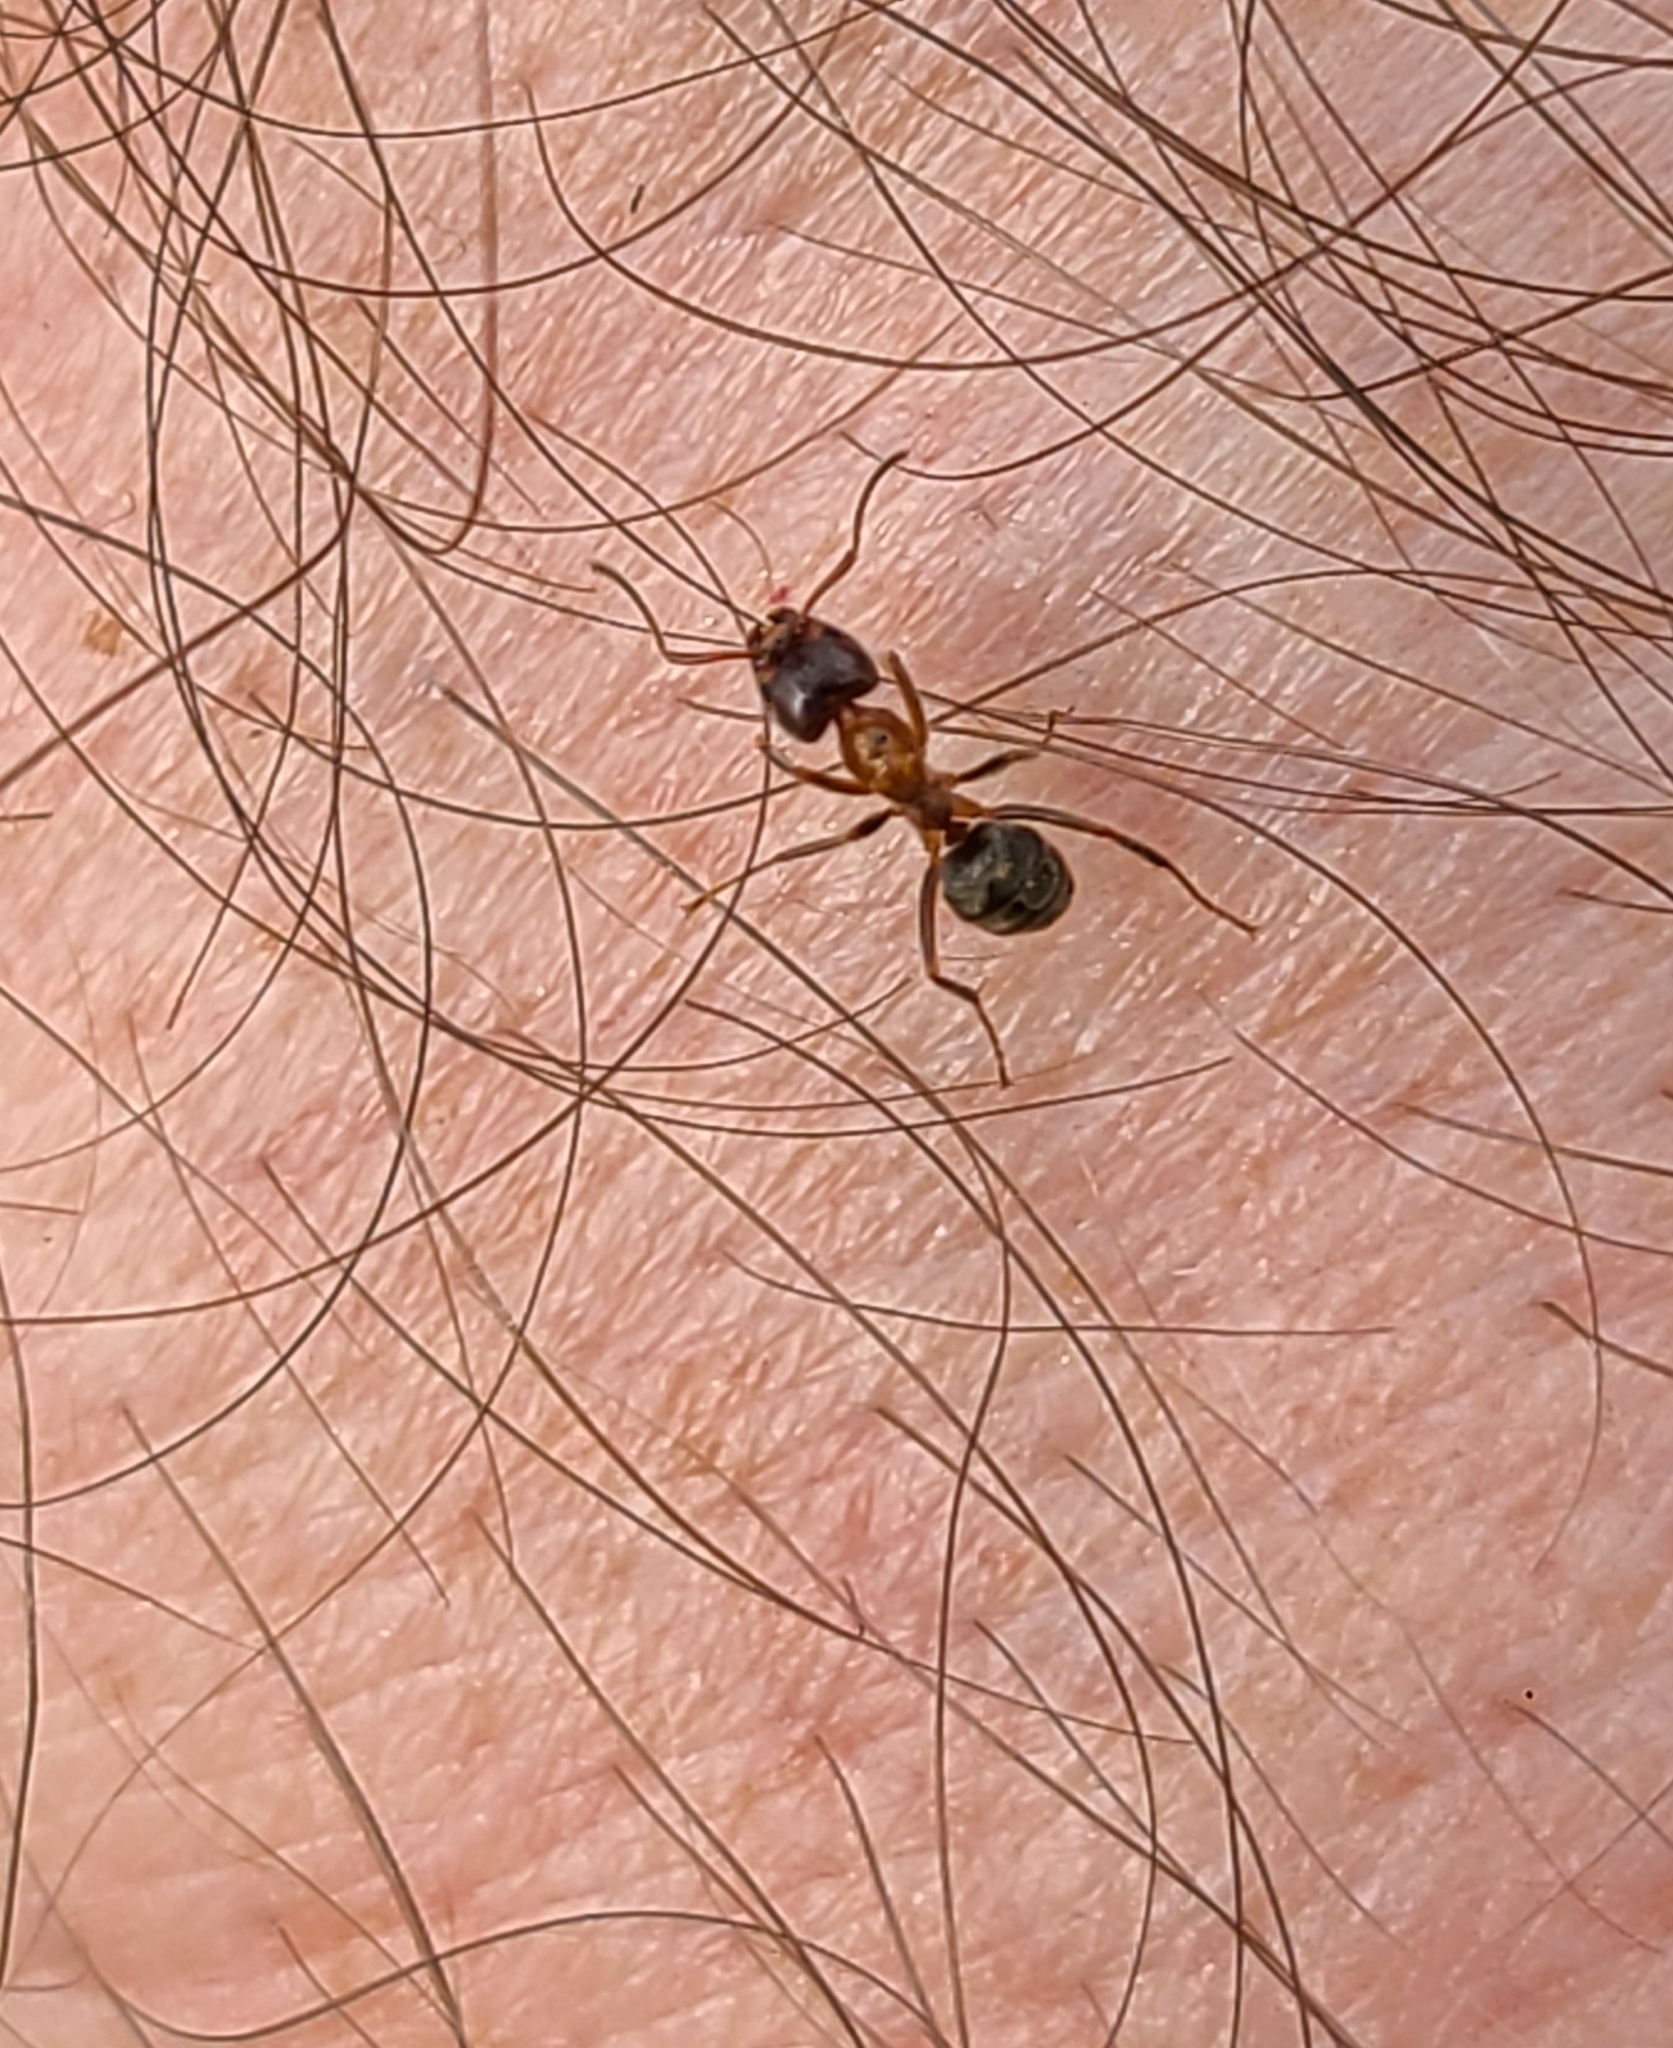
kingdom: Animalia
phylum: Arthropoda
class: Insecta
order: Hymenoptera
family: Formicidae
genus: Liometopum
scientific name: Liometopum occidentale
